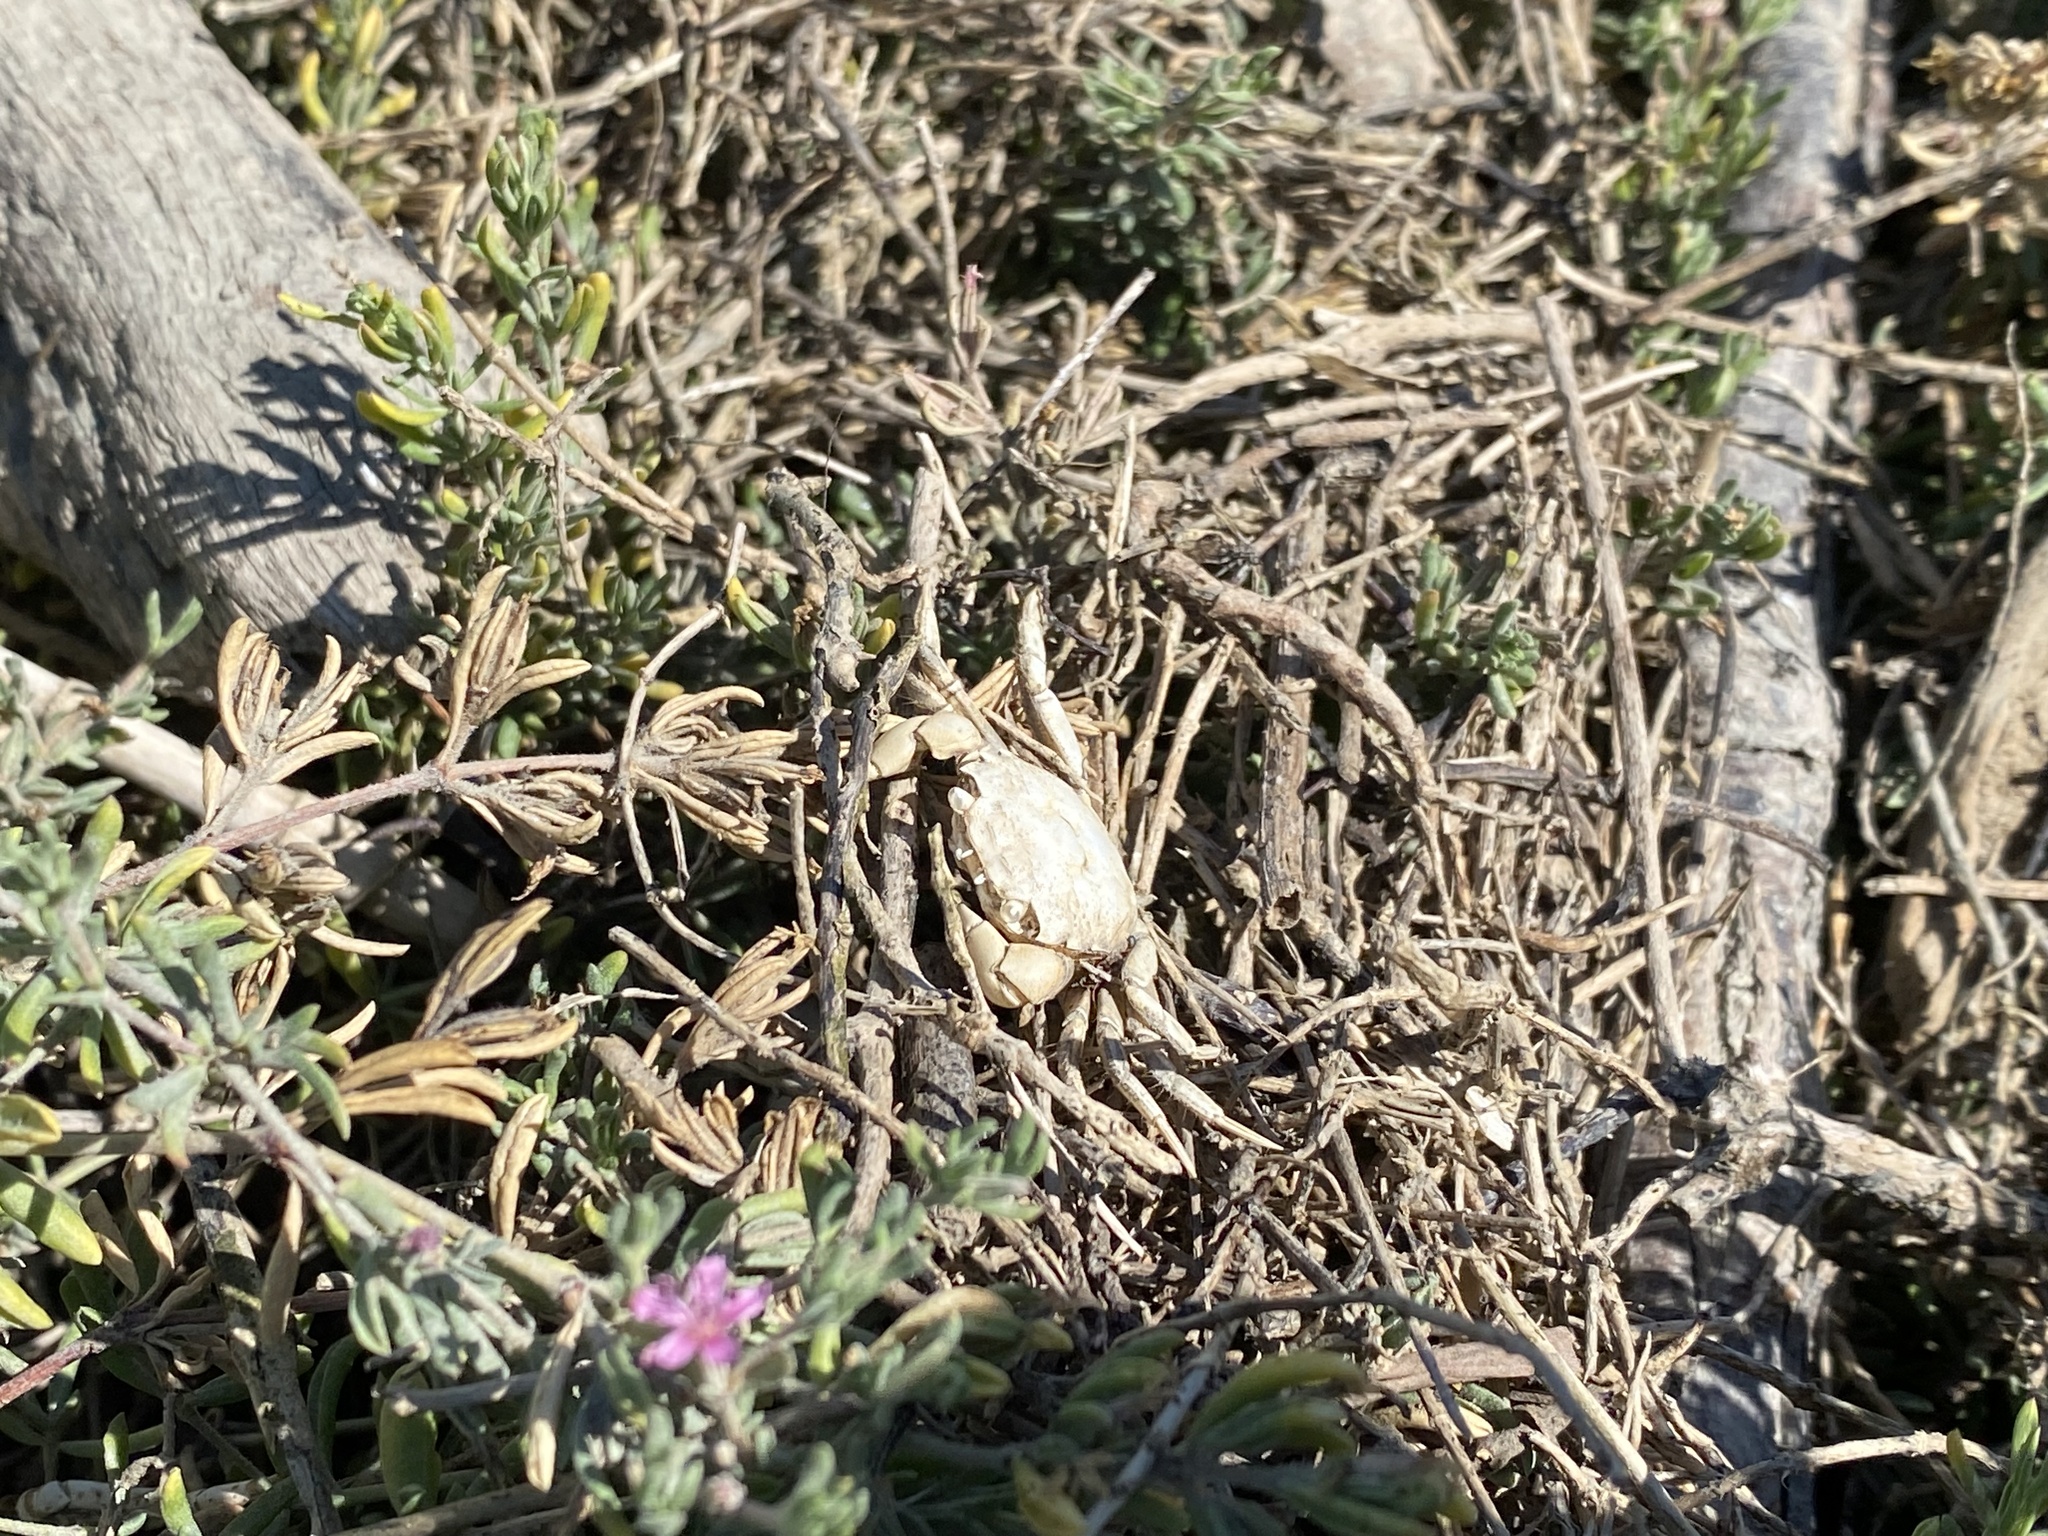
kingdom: Animalia
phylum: Arthropoda
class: Malacostraca
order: Decapoda
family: Varunidae
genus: Hemigrapsus
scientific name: Hemigrapsus oregonensis
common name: Yellow shore crab
